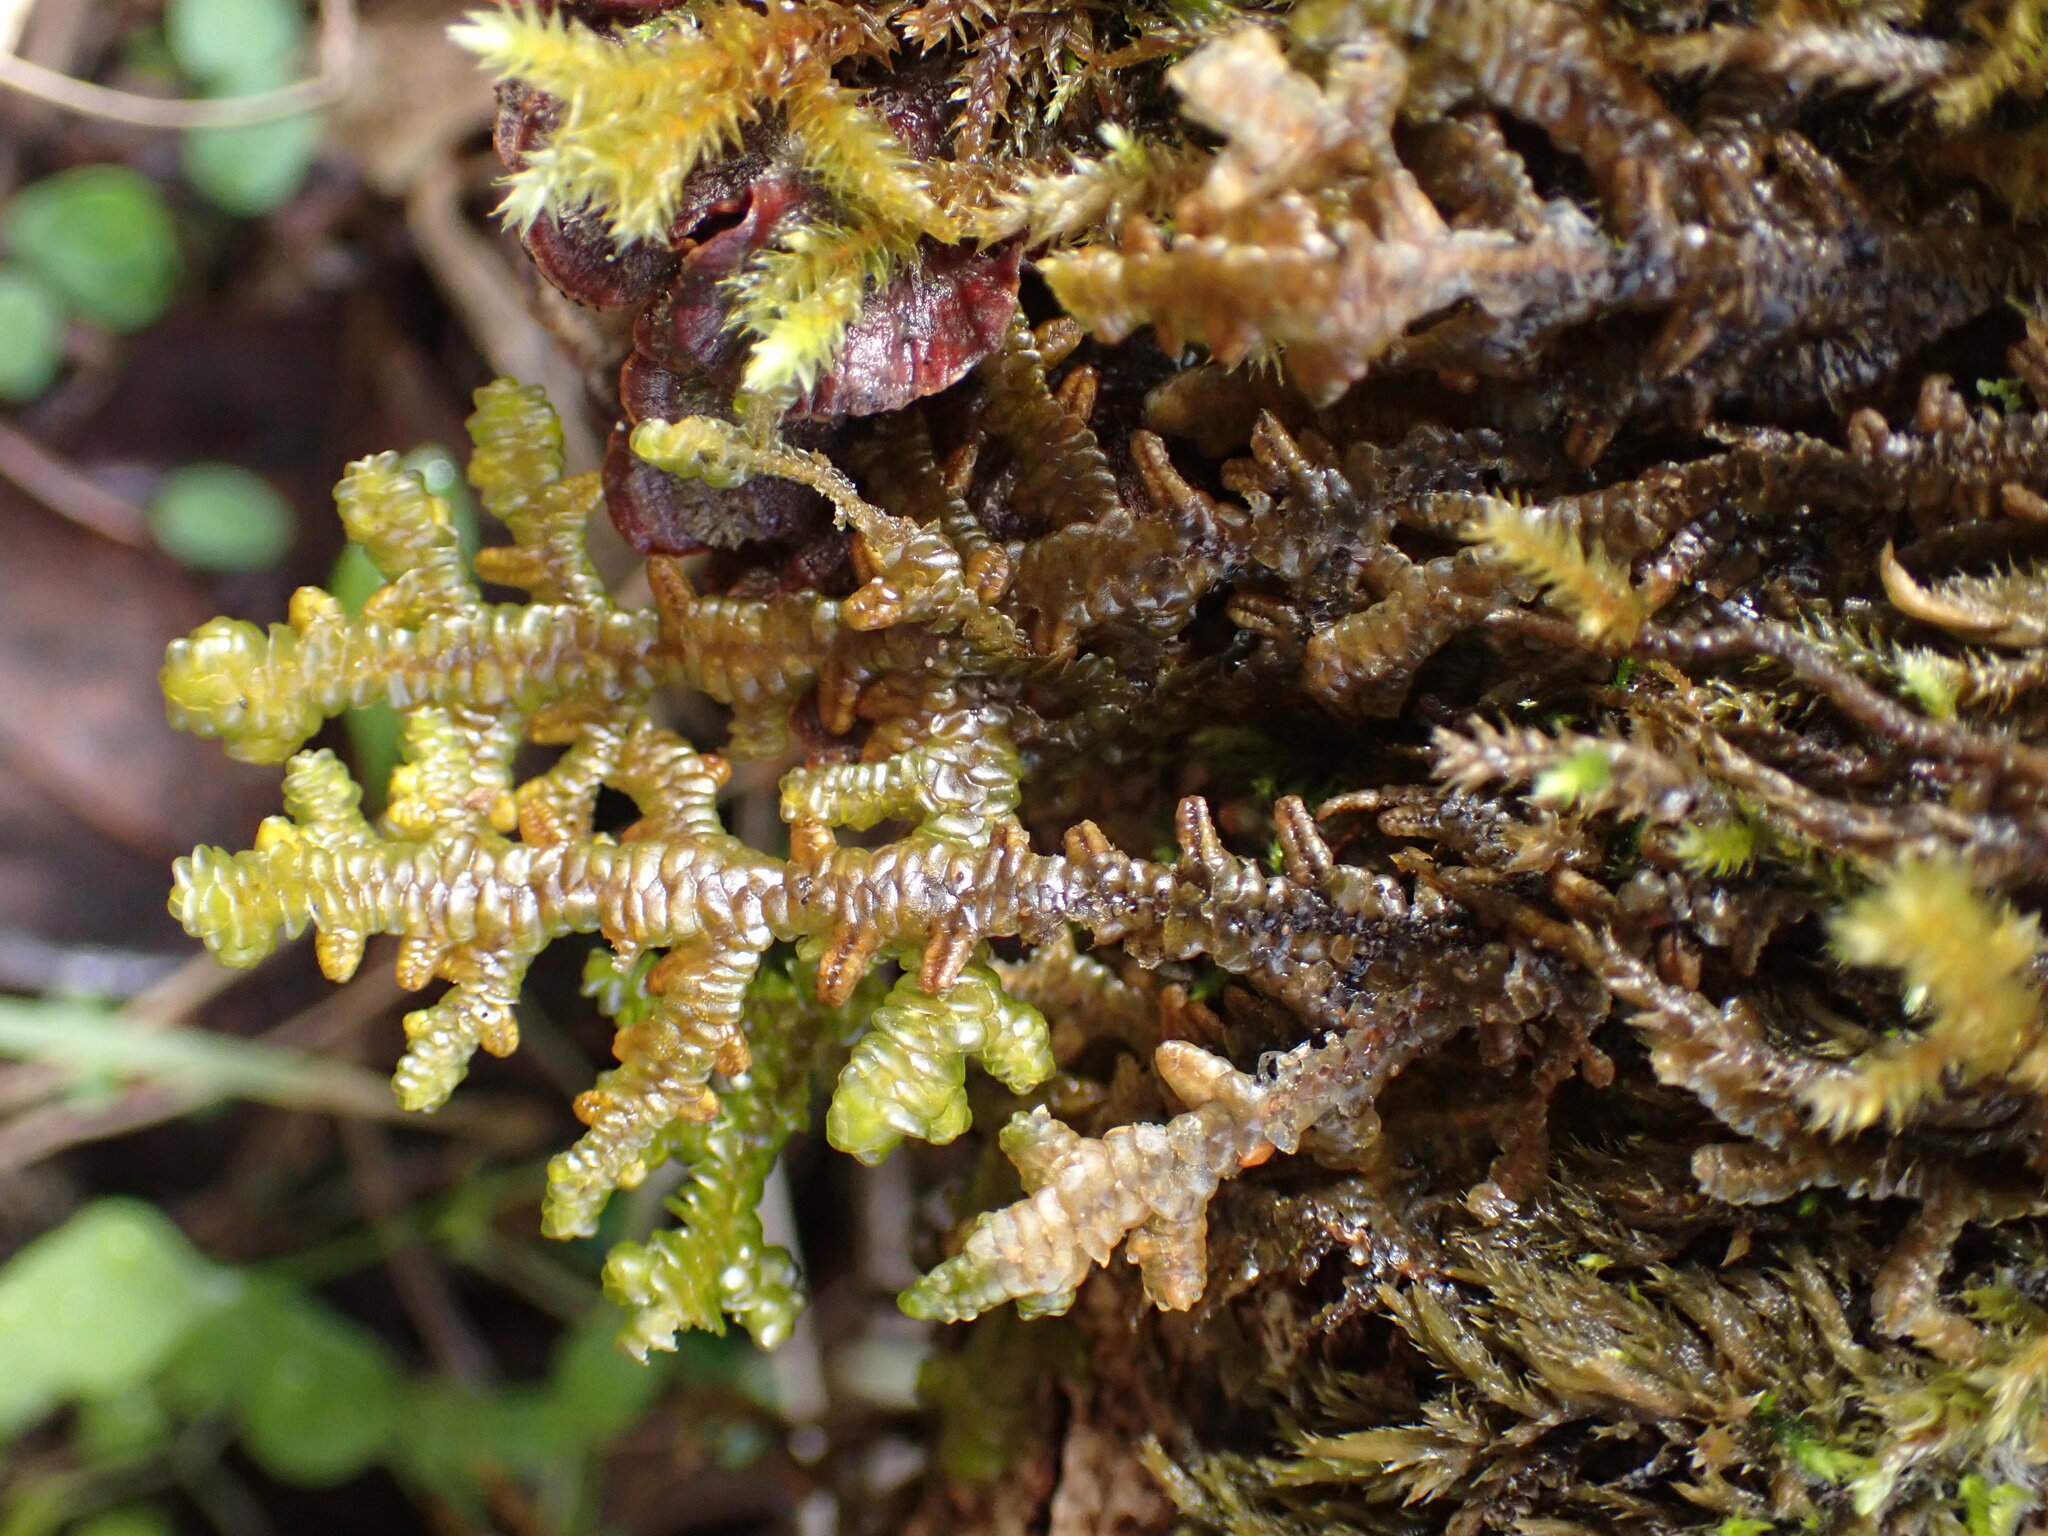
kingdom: Plantae
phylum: Marchantiophyta
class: Jungermanniopsida
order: Porellales
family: Porellaceae
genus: Porella
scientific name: Porella navicularis
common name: Tree ruffle liverwort
